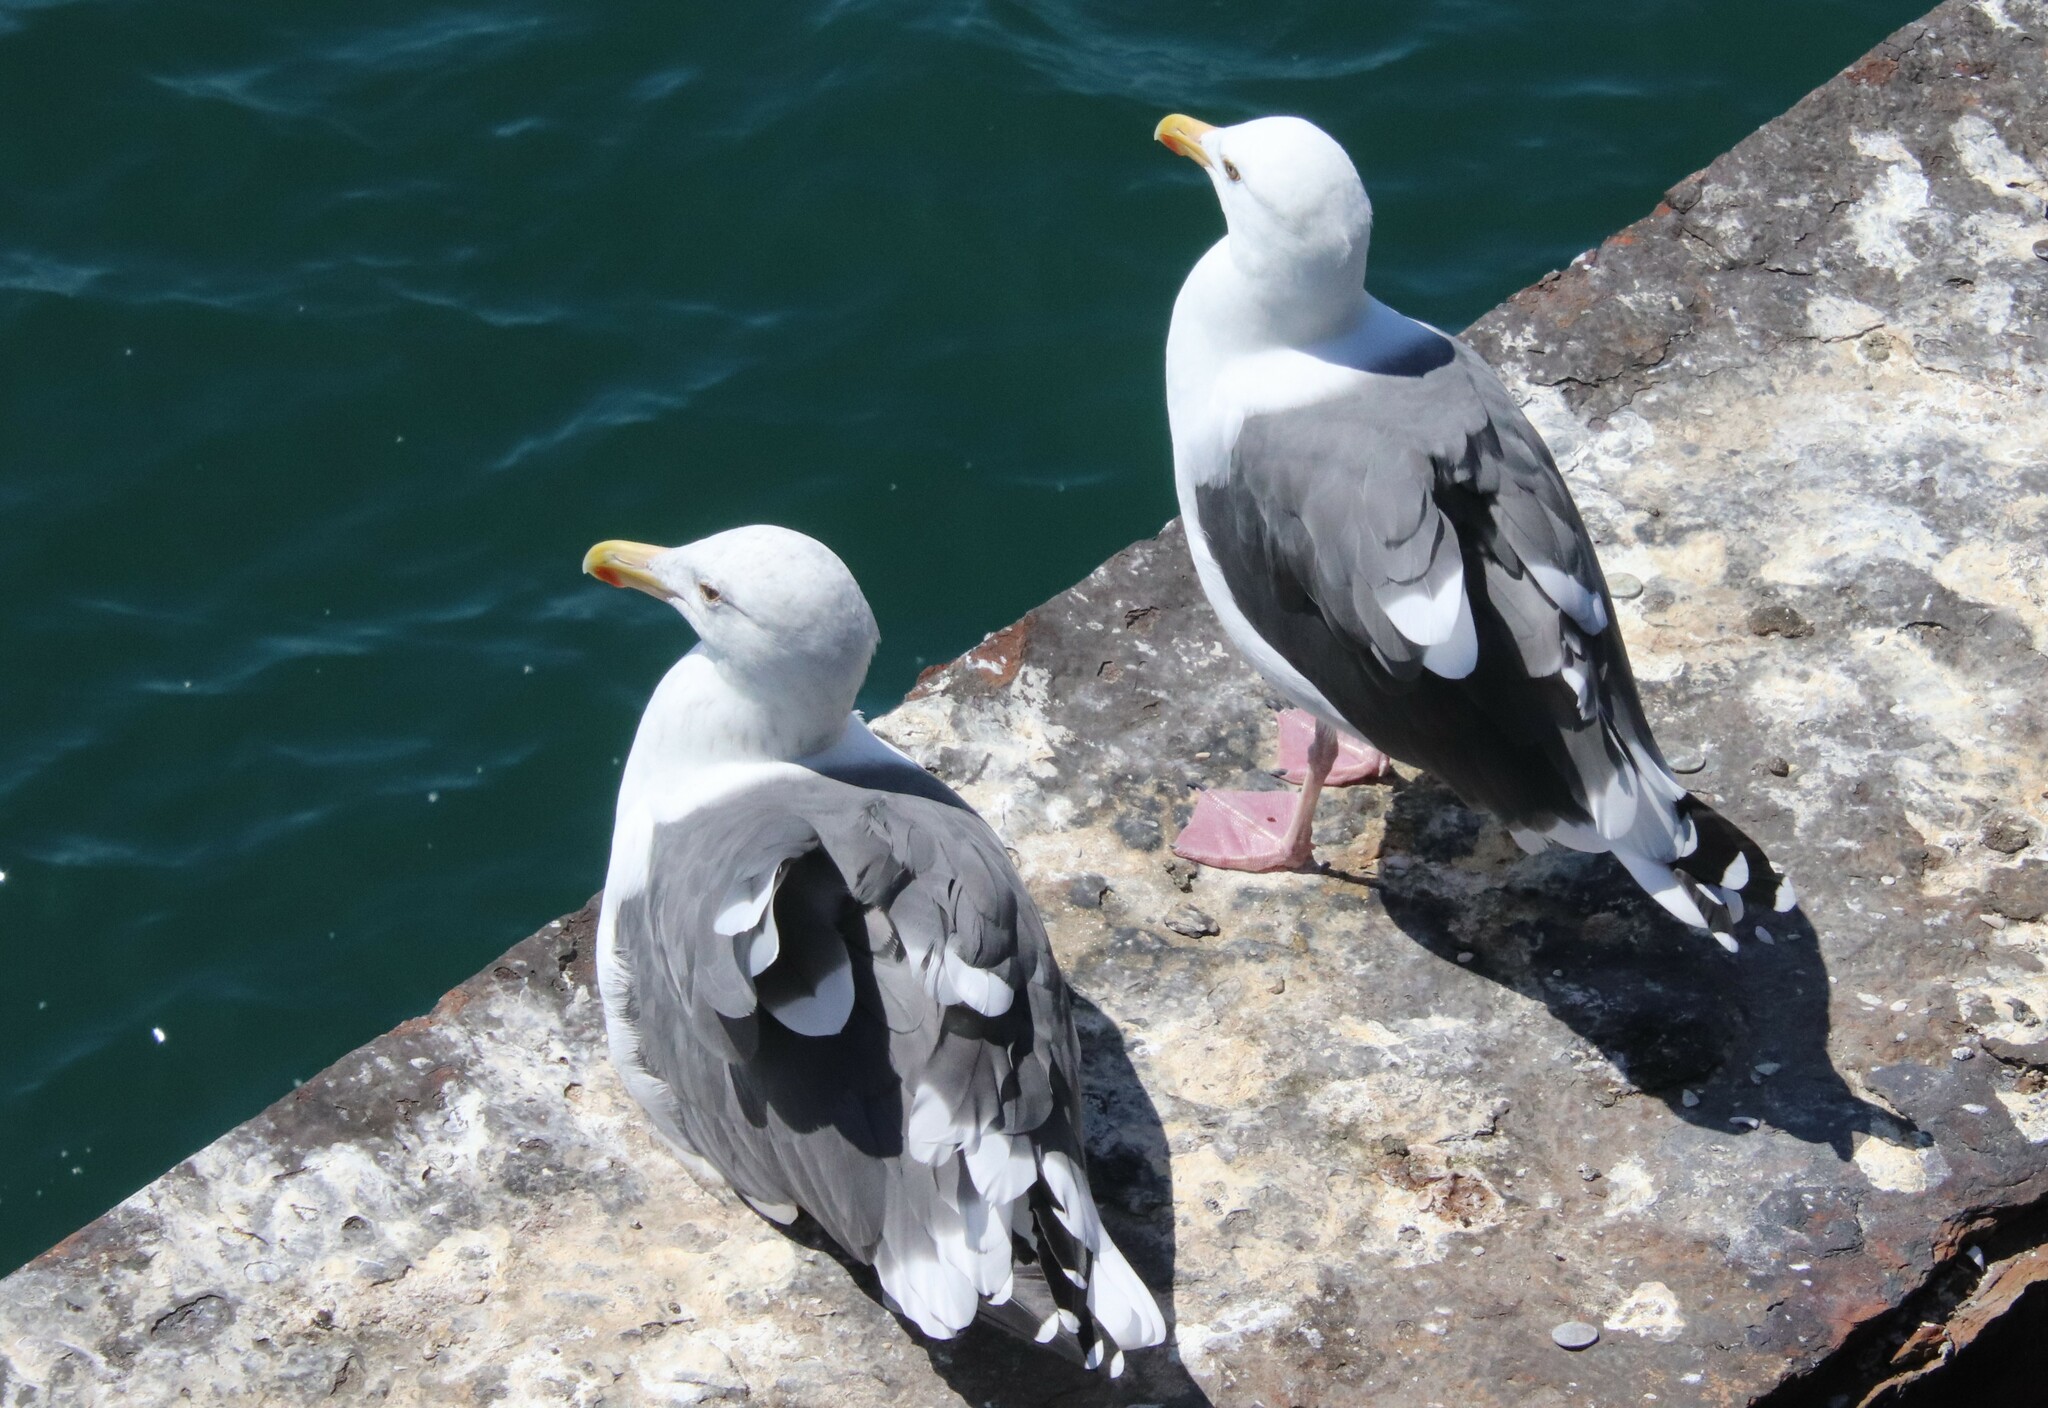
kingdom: Animalia
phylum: Chordata
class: Aves
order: Charadriiformes
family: Laridae
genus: Larus
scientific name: Larus occidentalis
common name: Western gull
